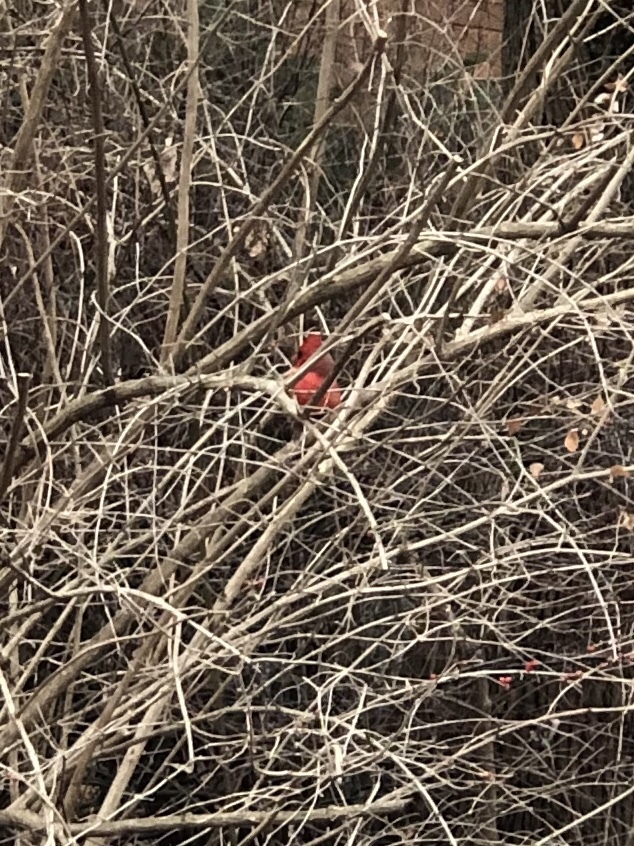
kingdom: Animalia
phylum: Chordata
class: Aves
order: Passeriformes
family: Cardinalidae
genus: Cardinalis
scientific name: Cardinalis cardinalis
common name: Northern cardinal
